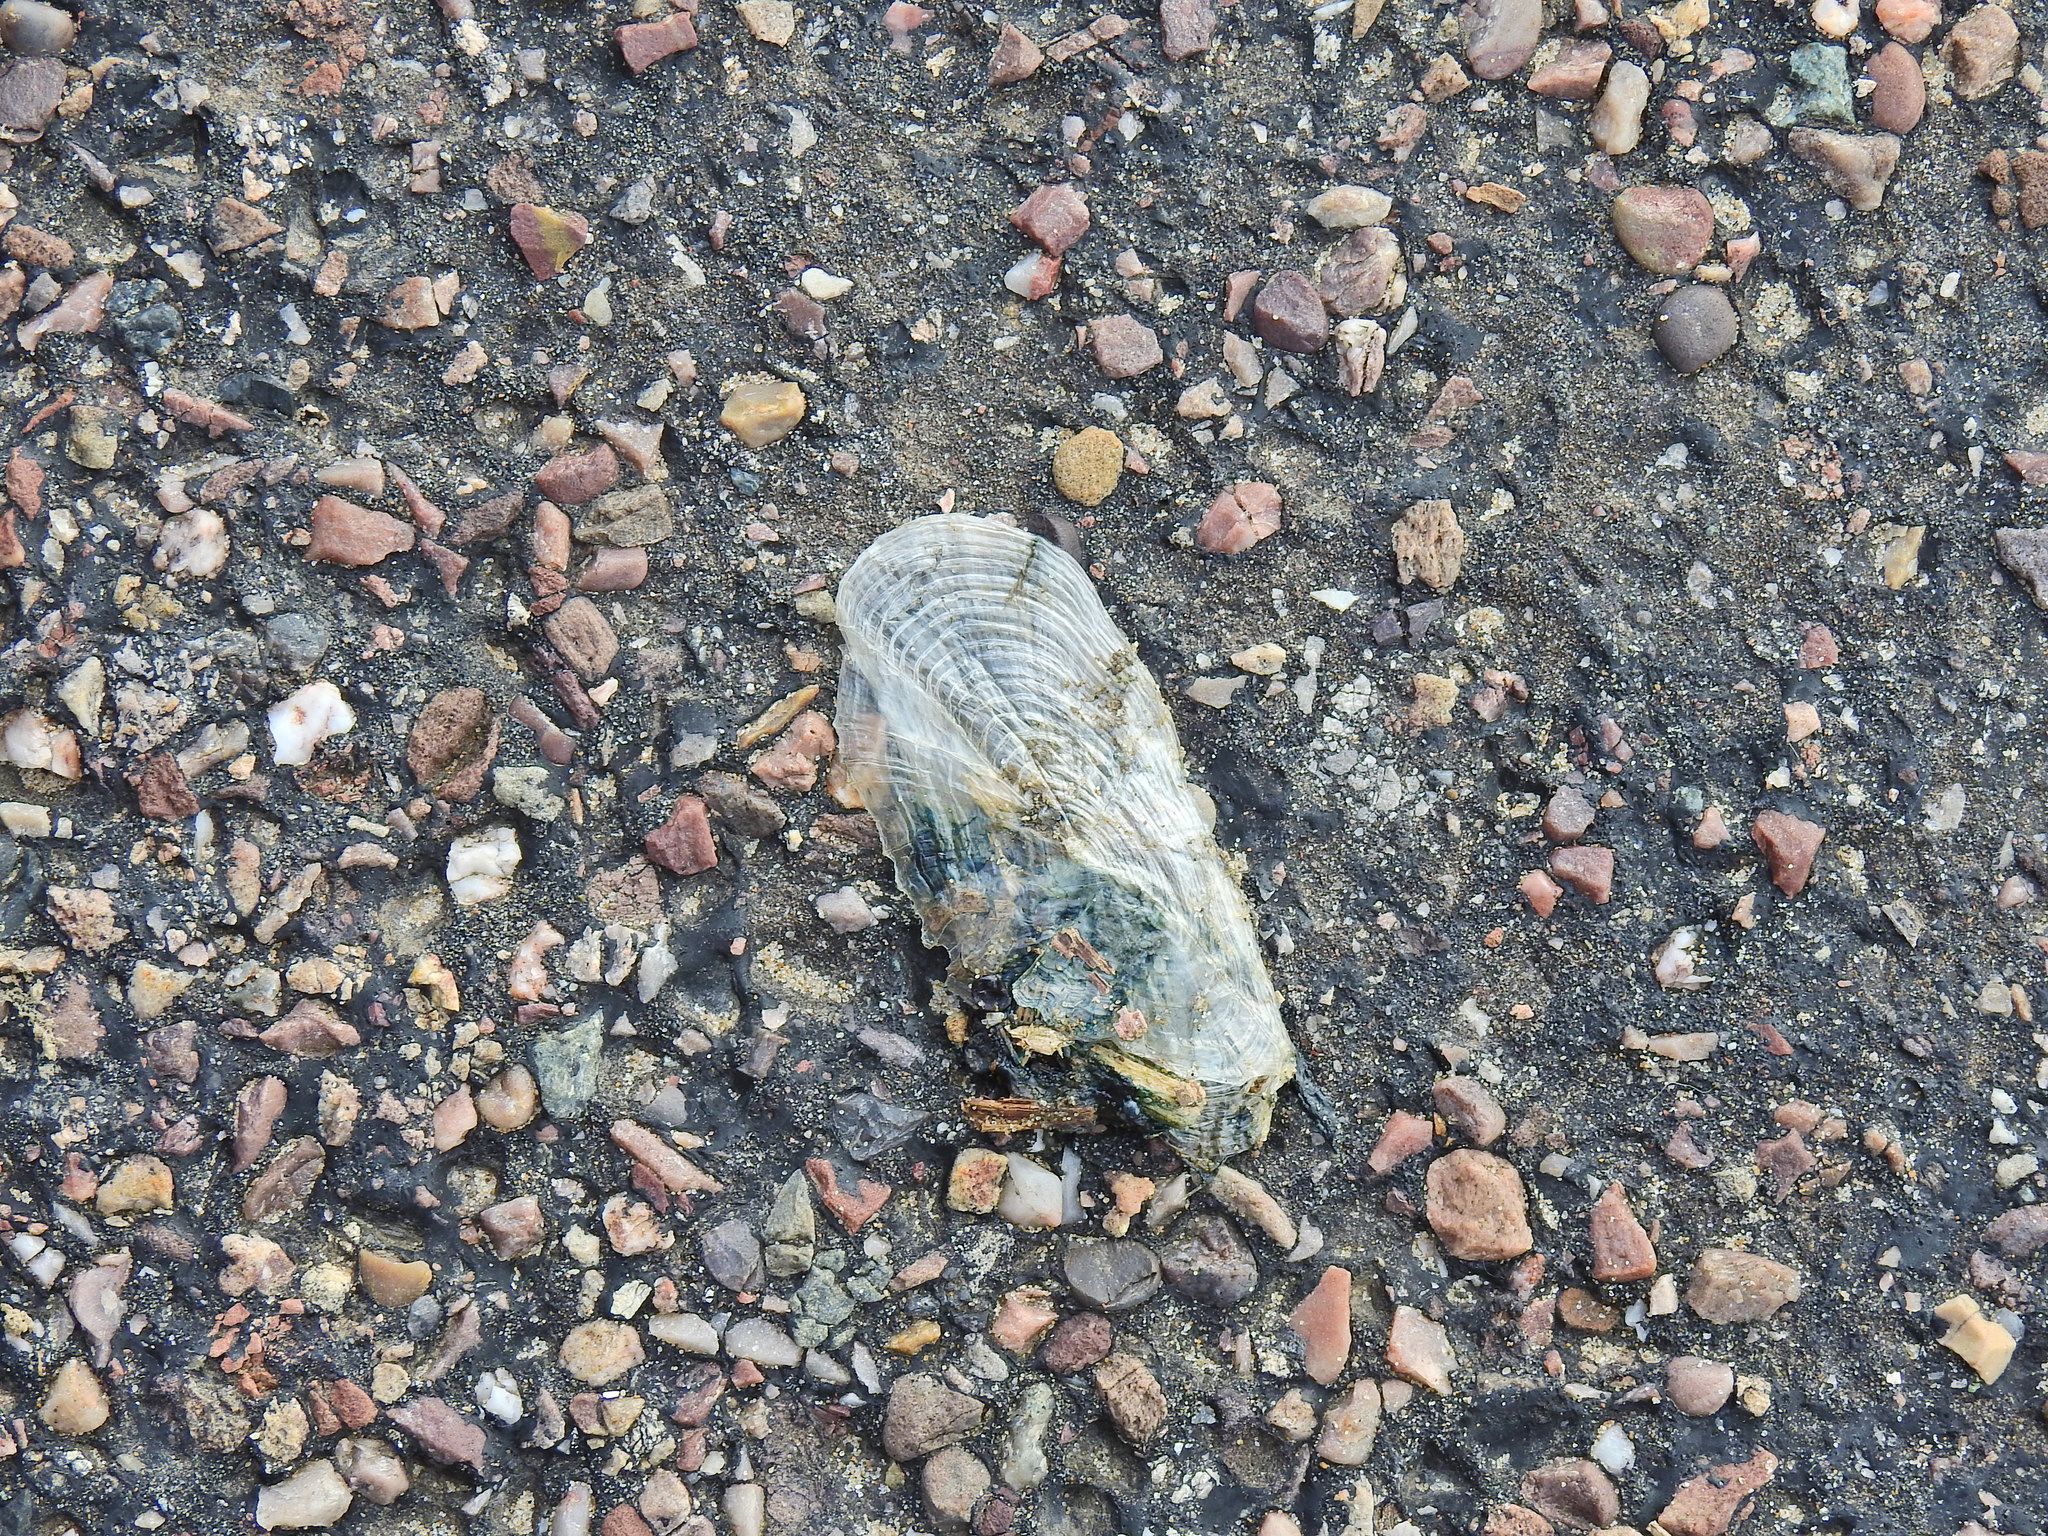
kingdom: Animalia
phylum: Cnidaria
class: Hydrozoa
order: Anthoathecata
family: Porpitidae
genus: Velella
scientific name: Velella velella
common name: By-the-wind-sailor
